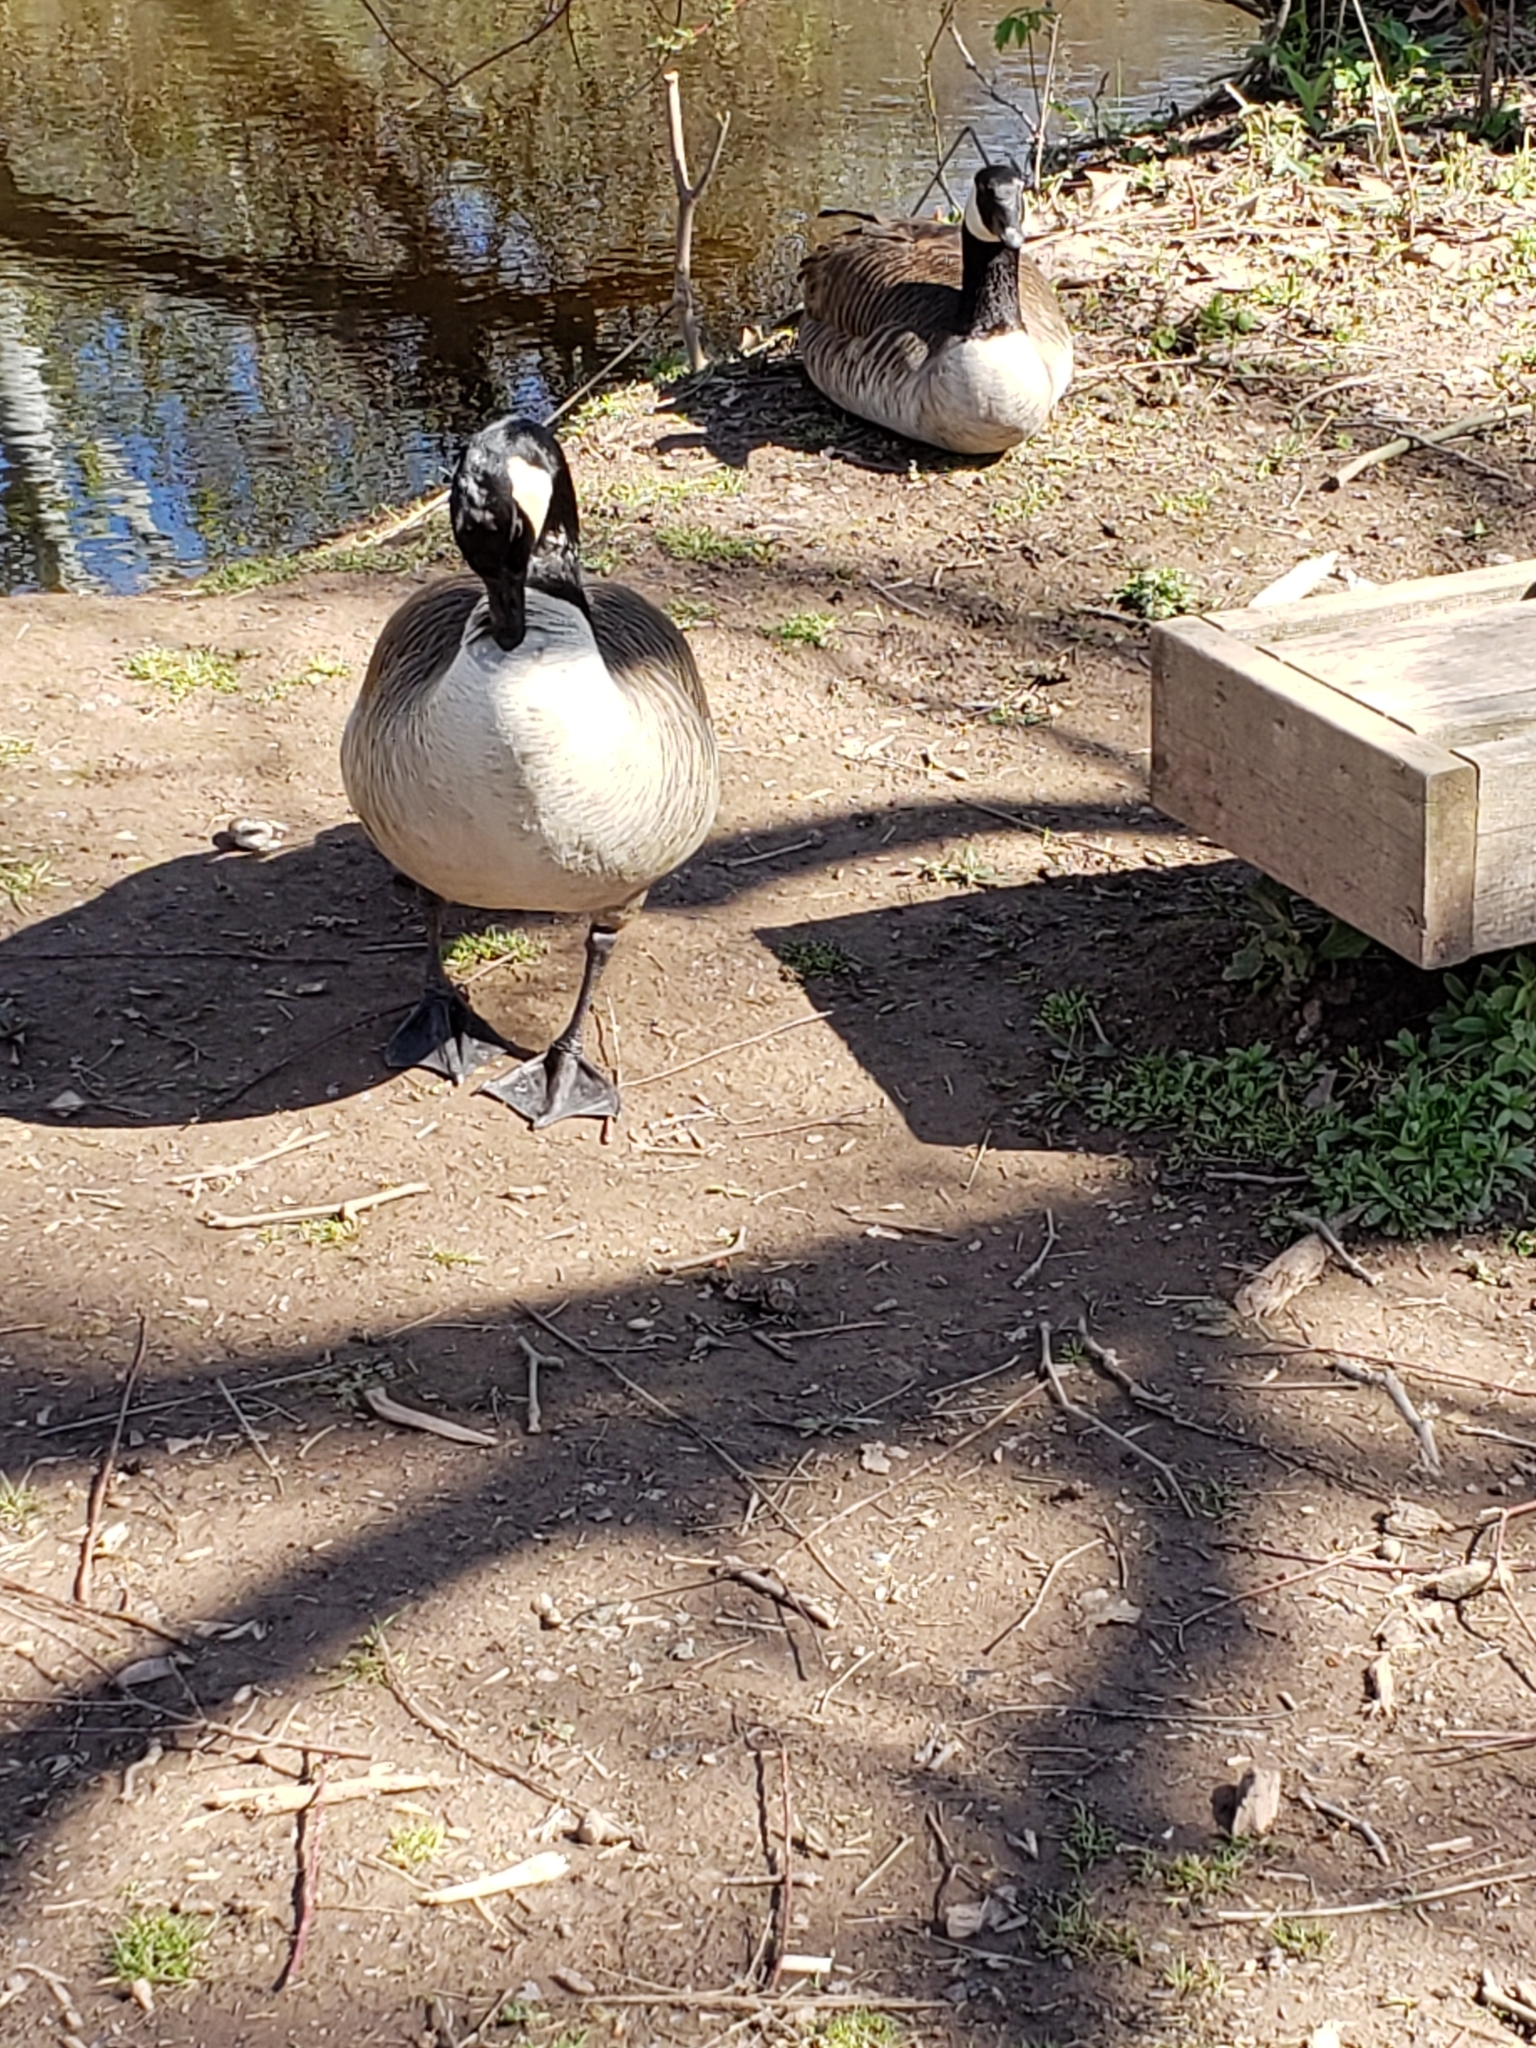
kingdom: Animalia
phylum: Chordata
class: Aves
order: Anseriformes
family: Anatidae
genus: Branta
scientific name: Branta canadensis
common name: Canada goose
